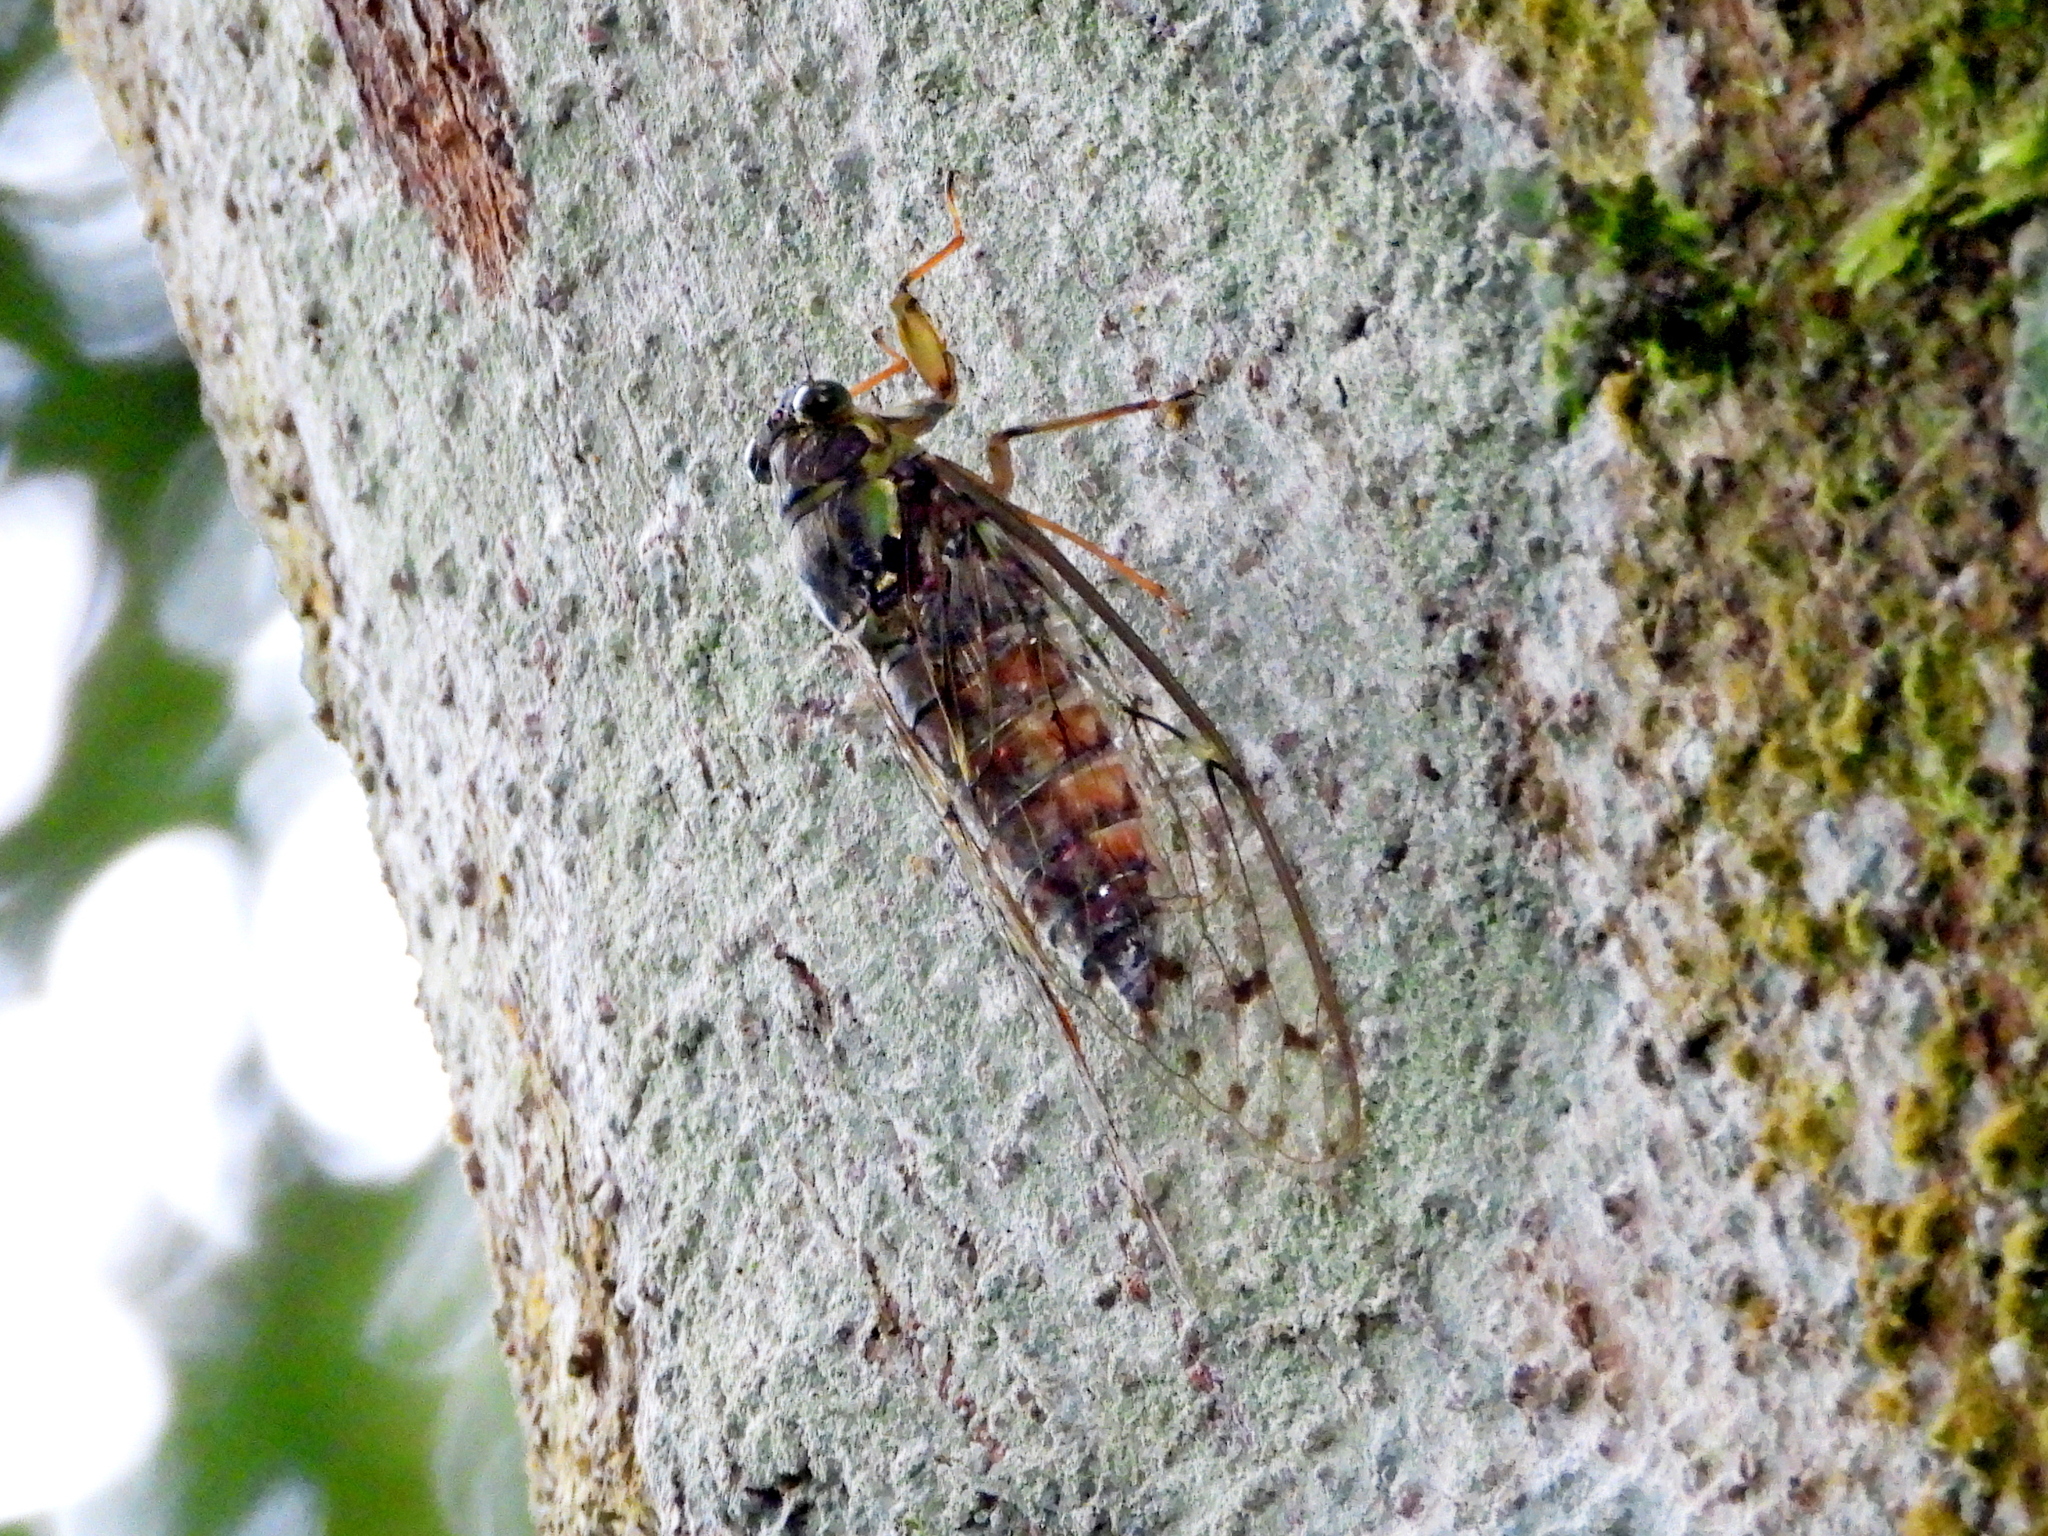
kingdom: Animalia
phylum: Arthropoda
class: Insecta
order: Hemiptera
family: Cicadidae
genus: Tanna
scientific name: Tanna viridis
